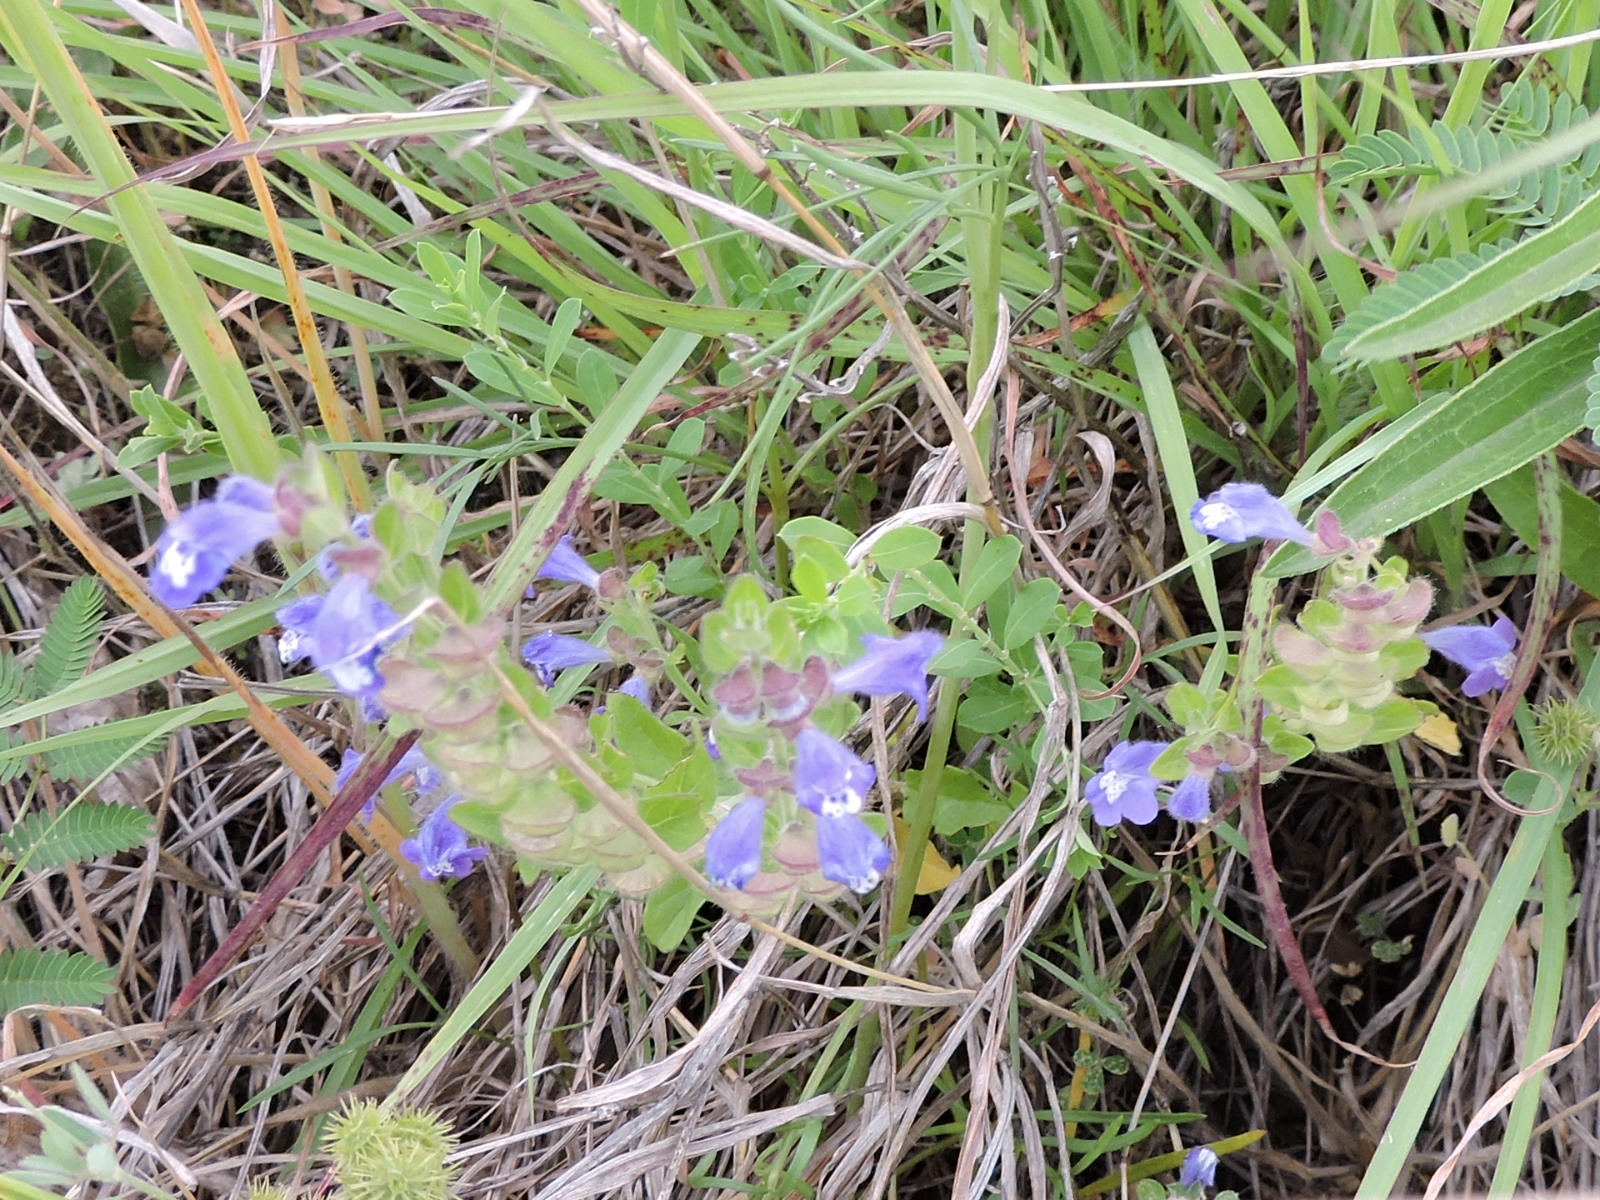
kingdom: Plantae
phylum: Tracheophyta
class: Magnoliopsida
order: Lamiales
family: Lamiaceae
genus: Scutellaria
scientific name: Scutellaria drummondii
